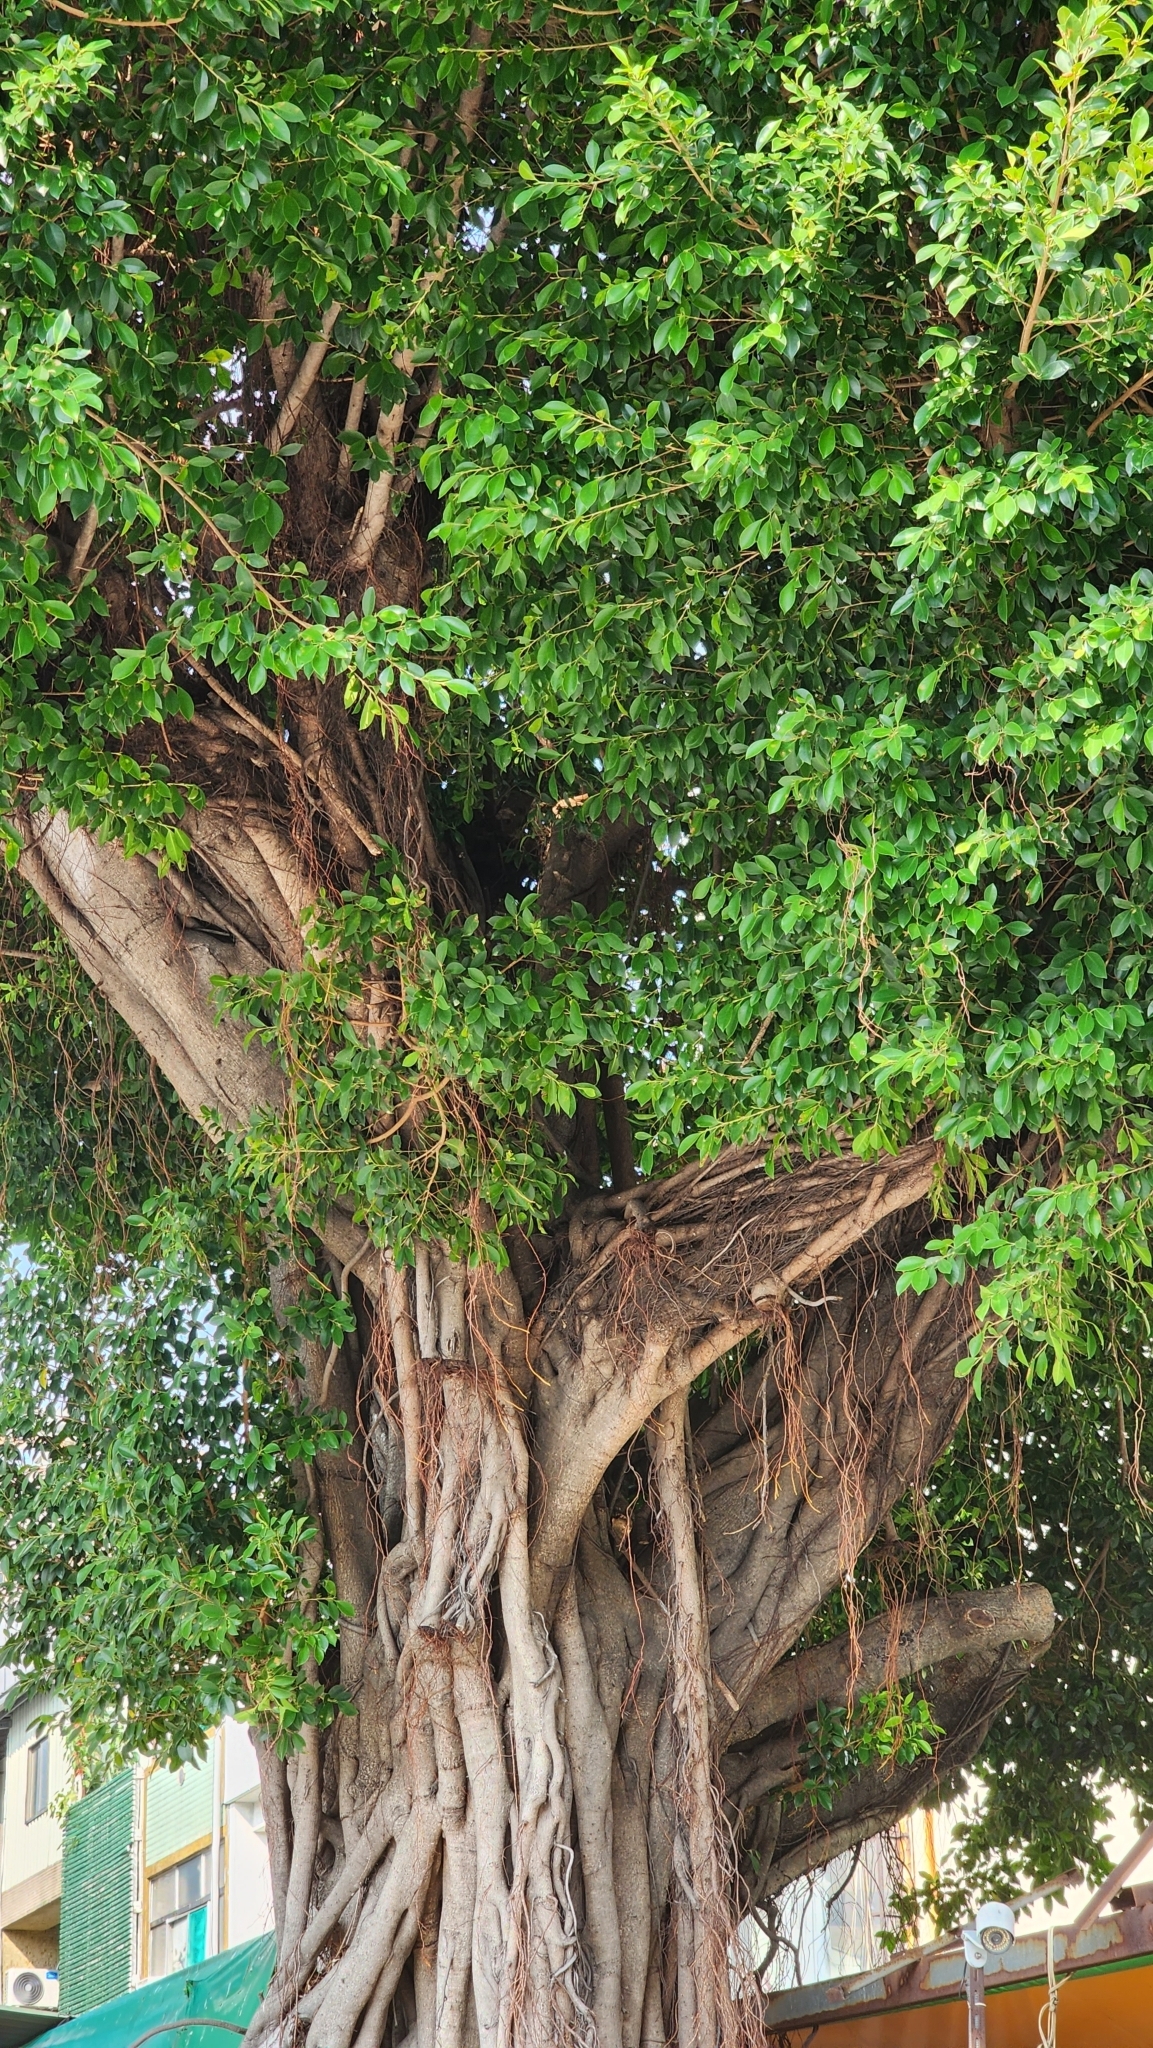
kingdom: Plantae
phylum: Tracheophyta
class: Magnoliopsida
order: Rosales
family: Moraceae
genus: Ficus
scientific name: Ficus microcarpa
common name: Chinese banyan
